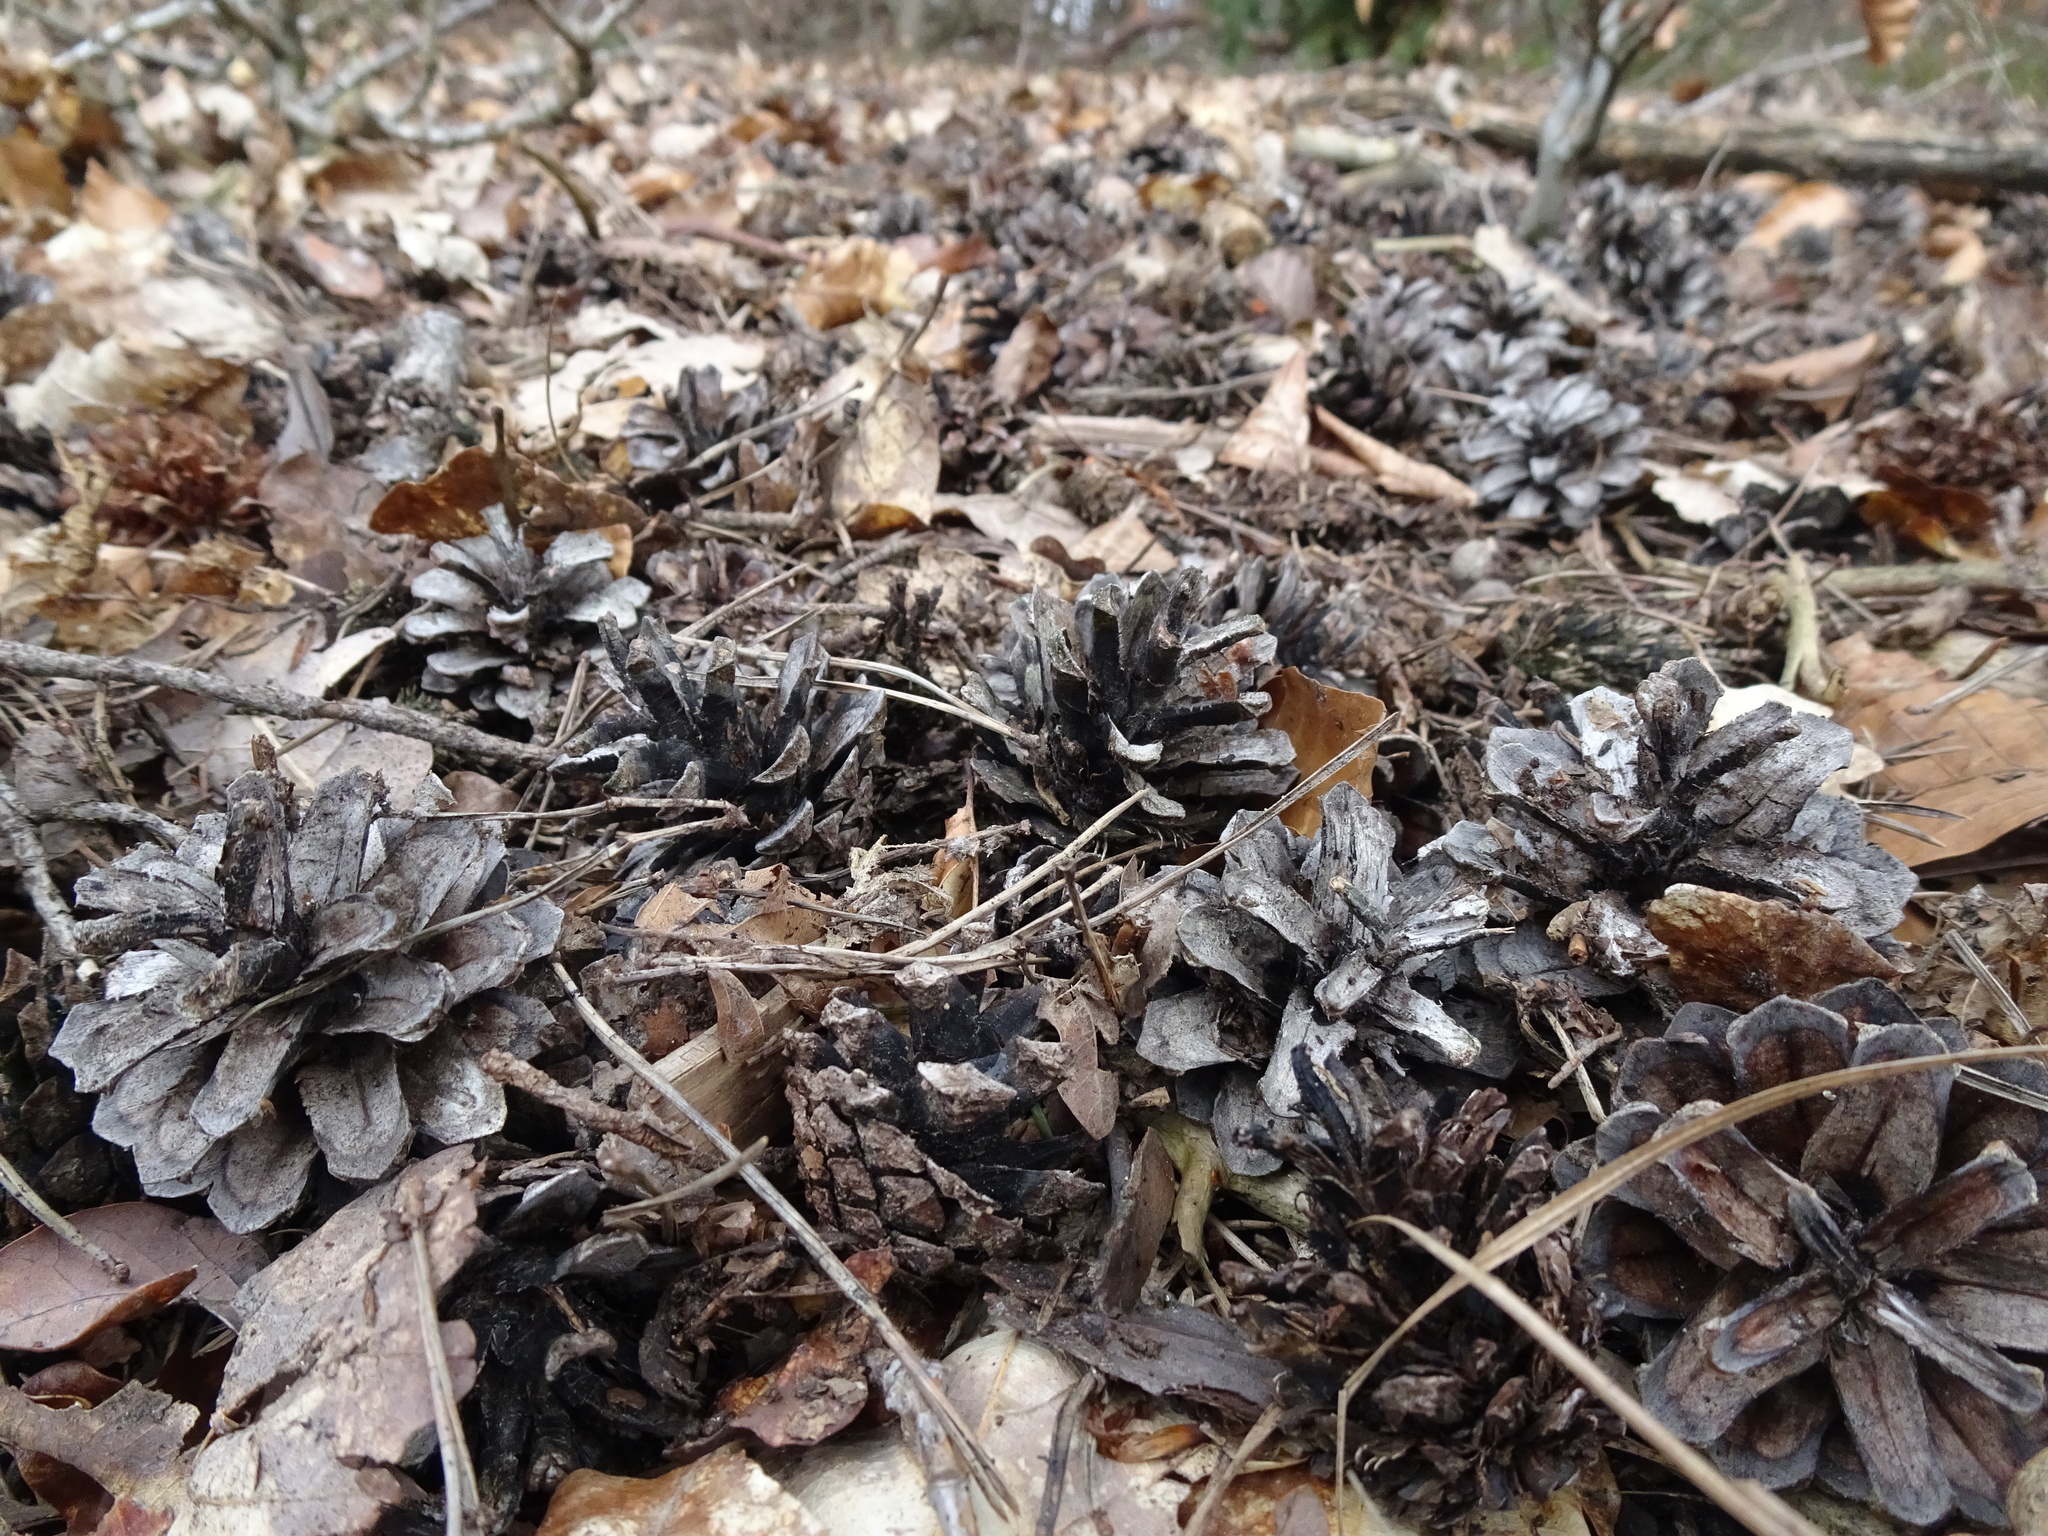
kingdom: Plantae
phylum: Tracheophyta
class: Pinopsida
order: Pinales
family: Pinaceae
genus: Pinus
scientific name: Pinus sylvestris
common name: Scots pine
